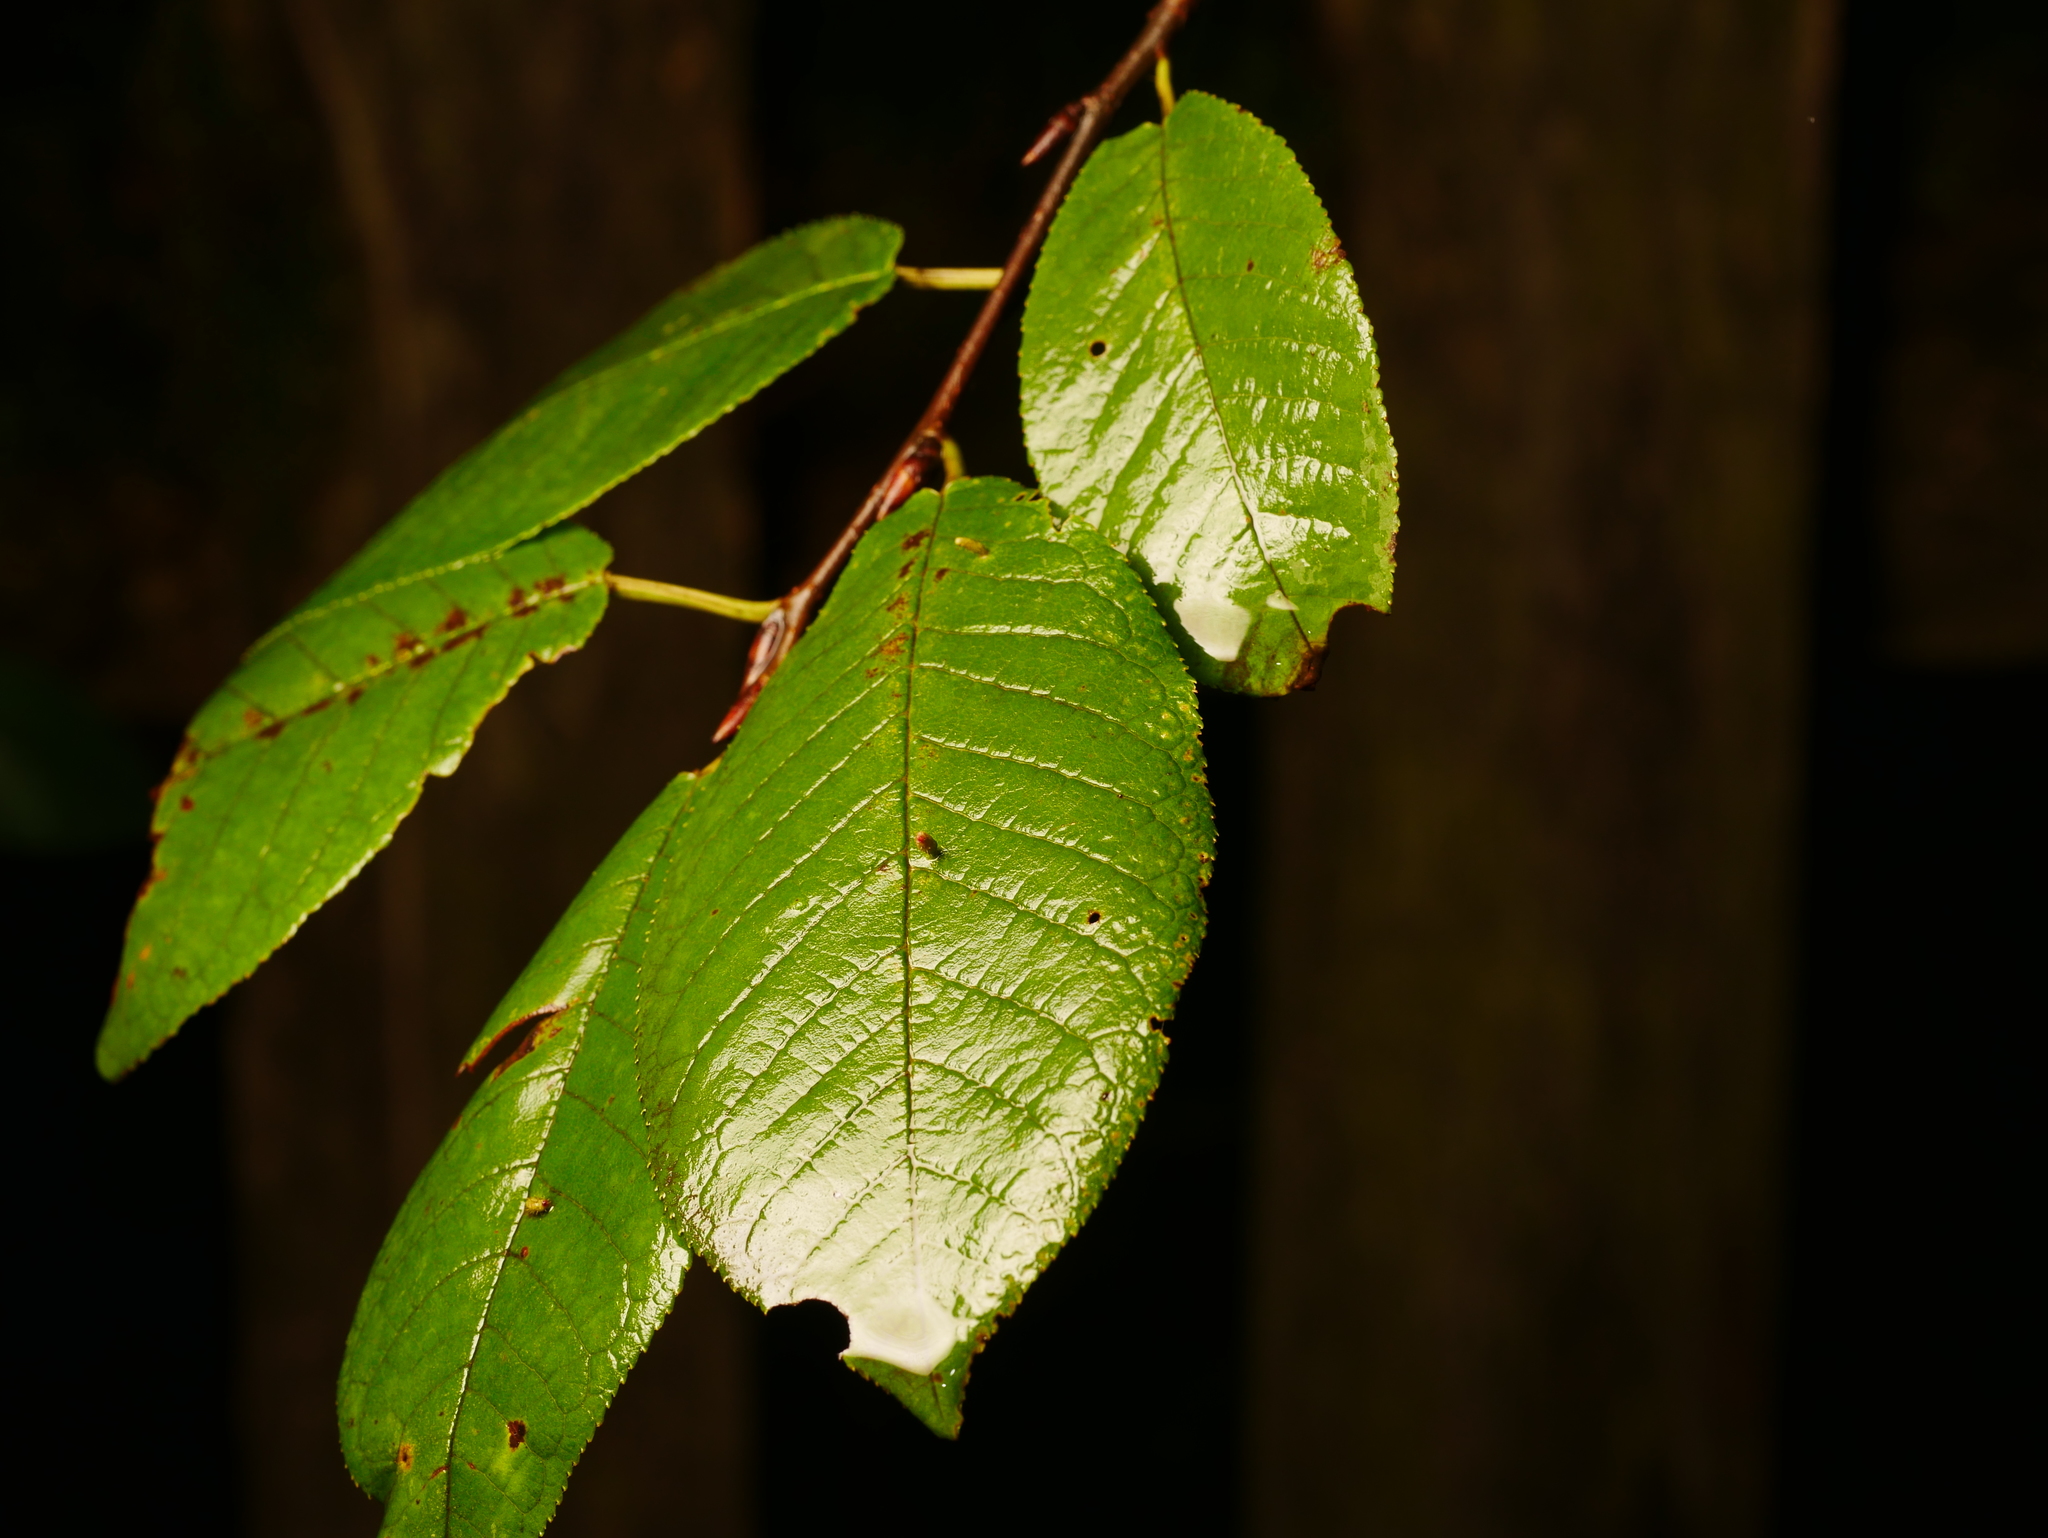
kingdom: Plantae
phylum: Tracheophyta
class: Magnoliopsida
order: Rosales
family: Rosaceae
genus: Prunus
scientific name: Prunus padus
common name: Bird cherry
